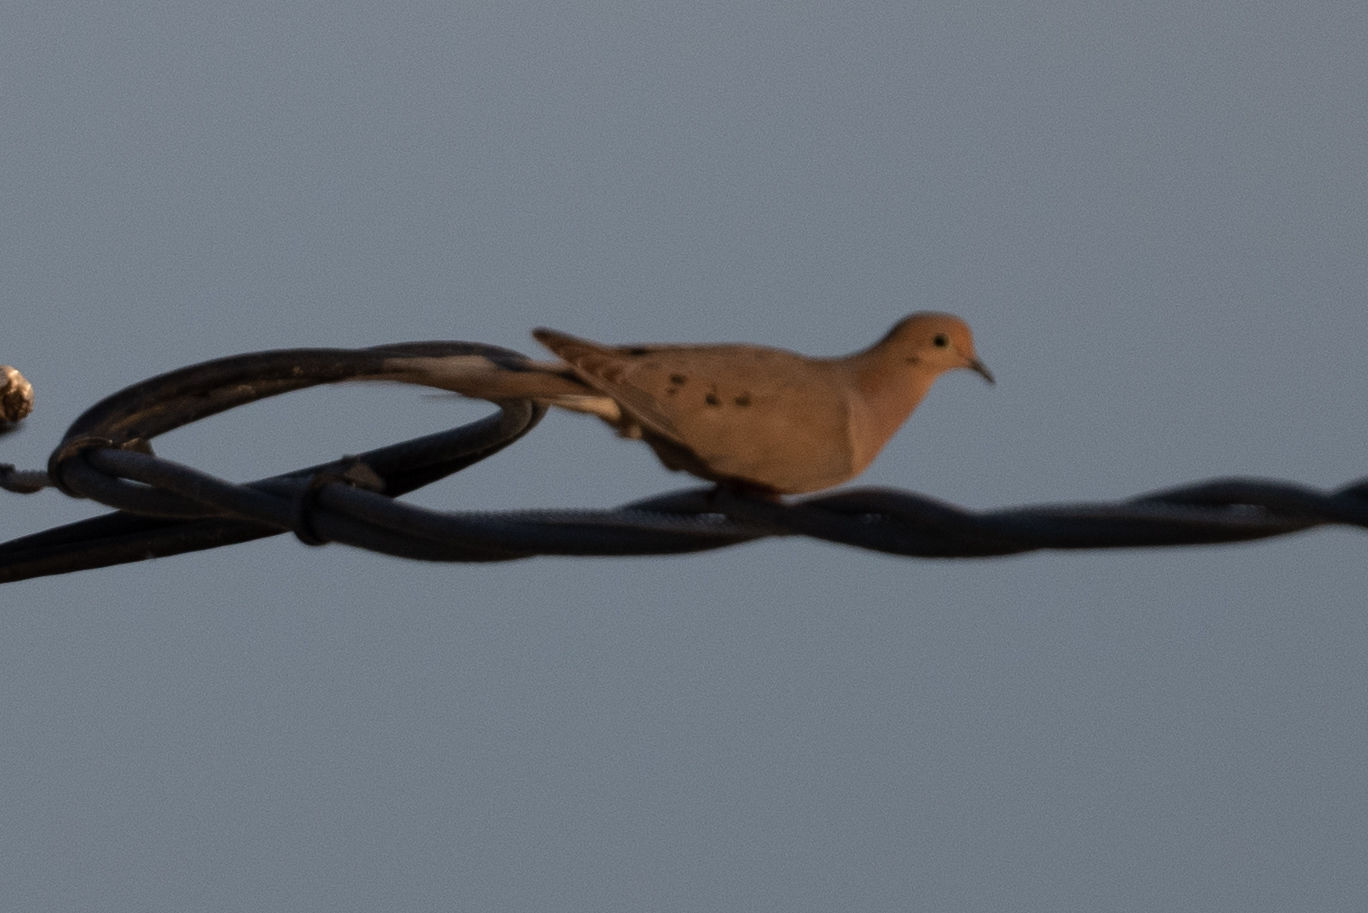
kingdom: Animalia
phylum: Chordata
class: Aves
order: Columbiformes
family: Columbidae
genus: Zenaida
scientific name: Zenaida macroura
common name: Mourning dove
